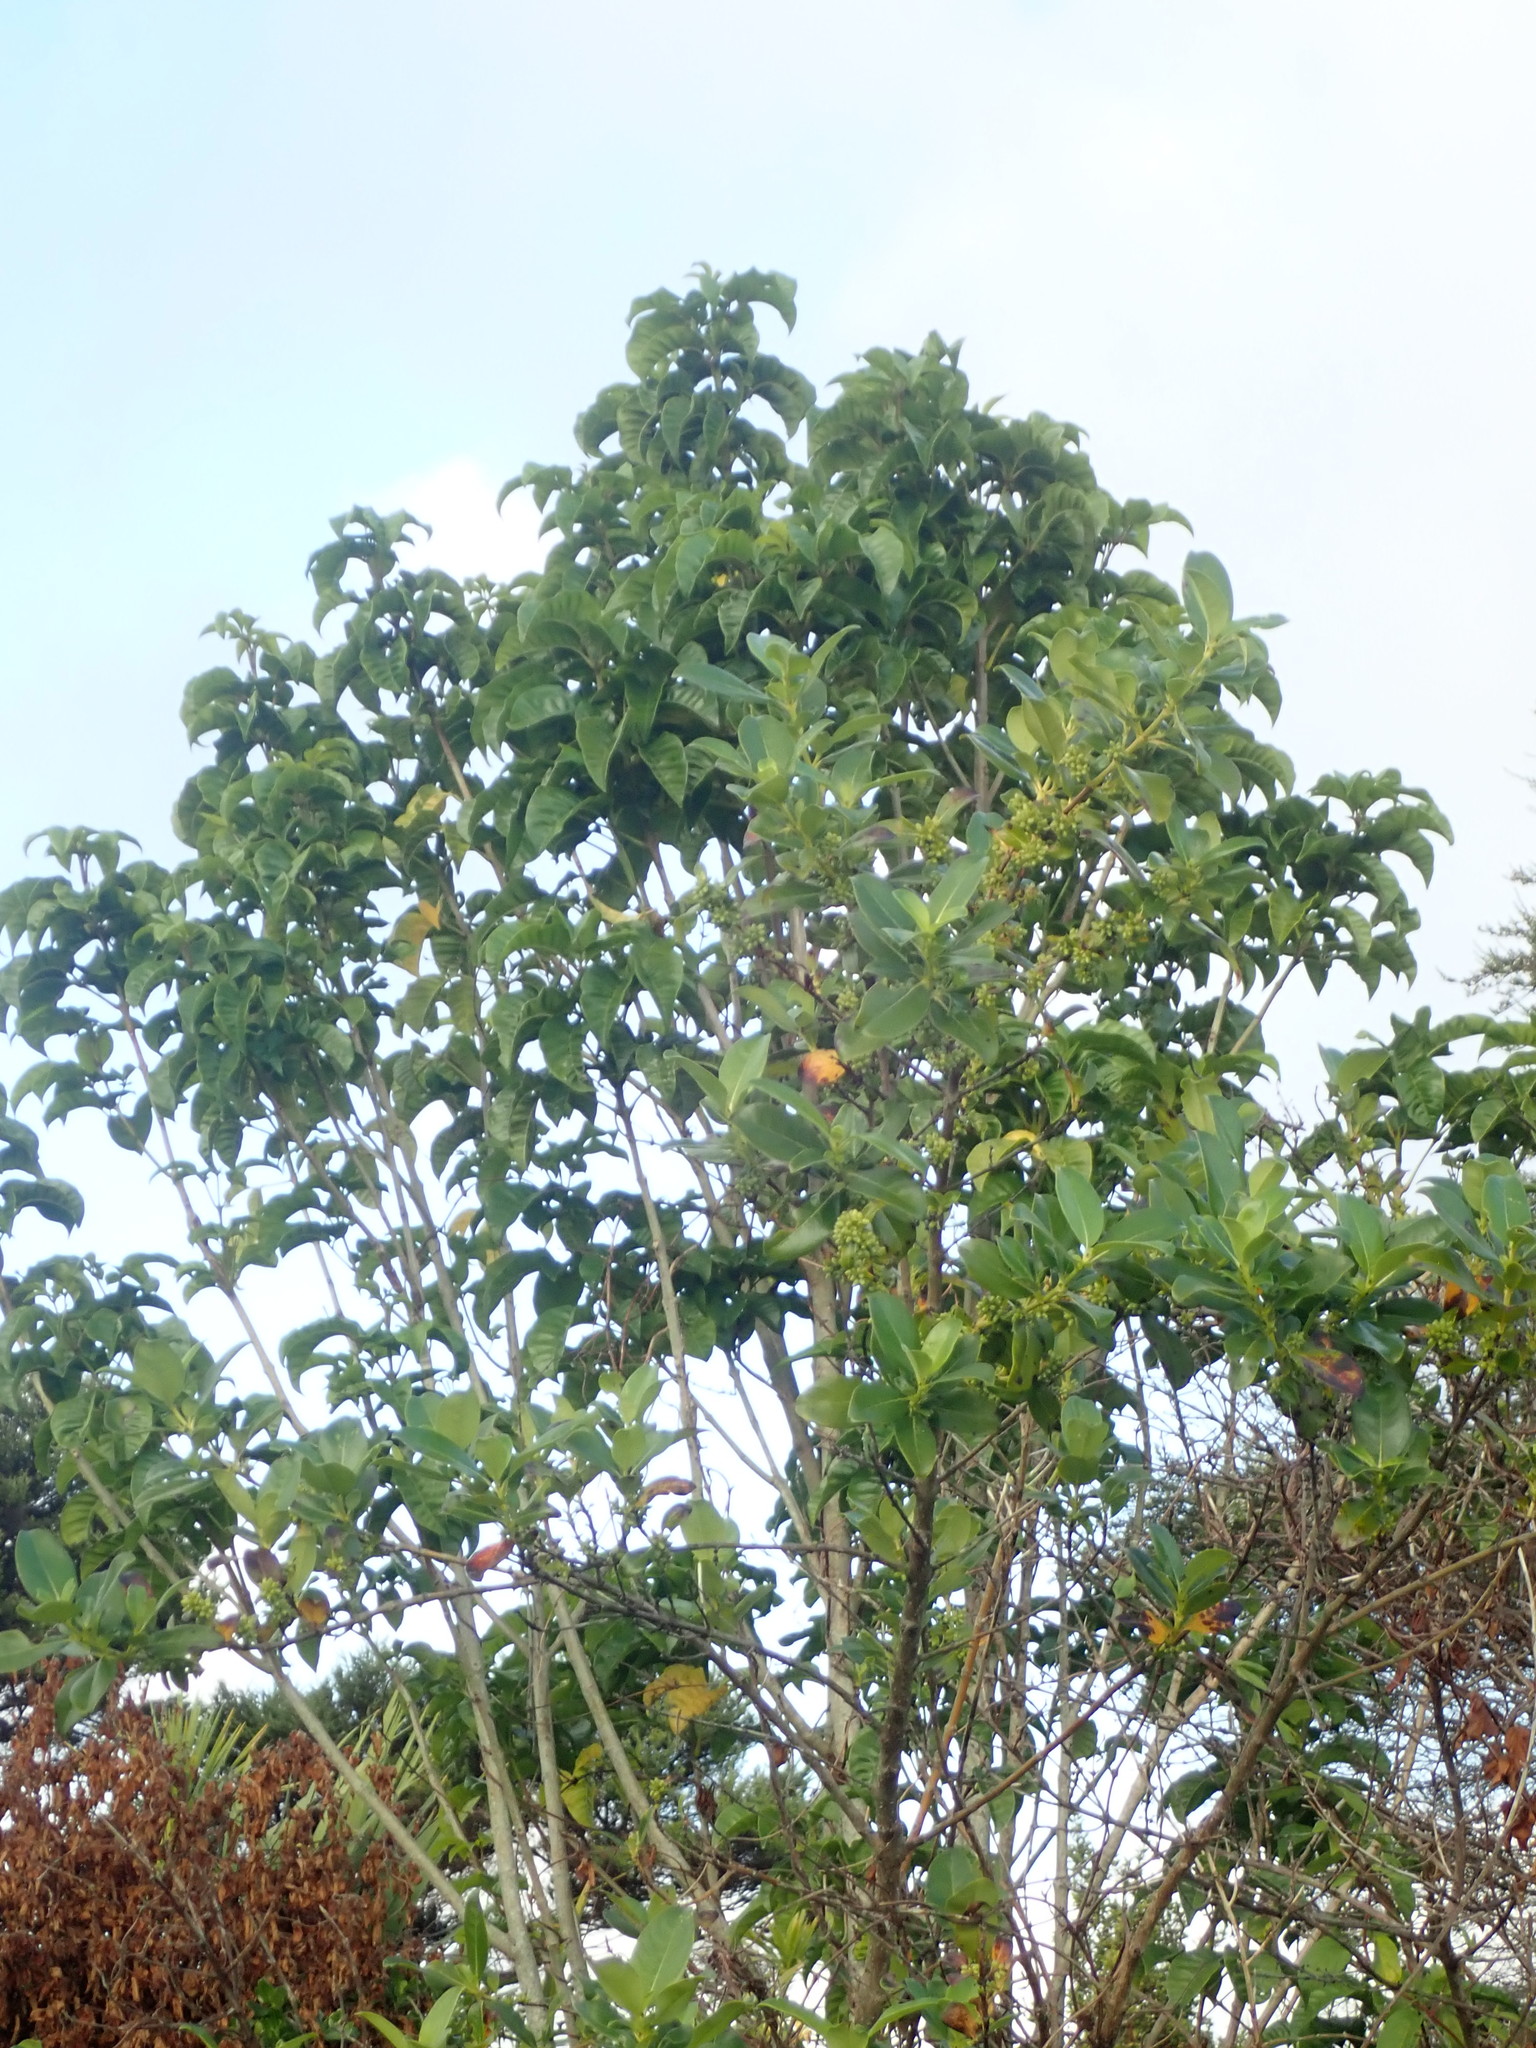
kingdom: Plantae
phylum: Tracheophyta
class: Magnoliopsida
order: Lamiales
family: Lamiaceae
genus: Vitex
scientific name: Vitex lucens
